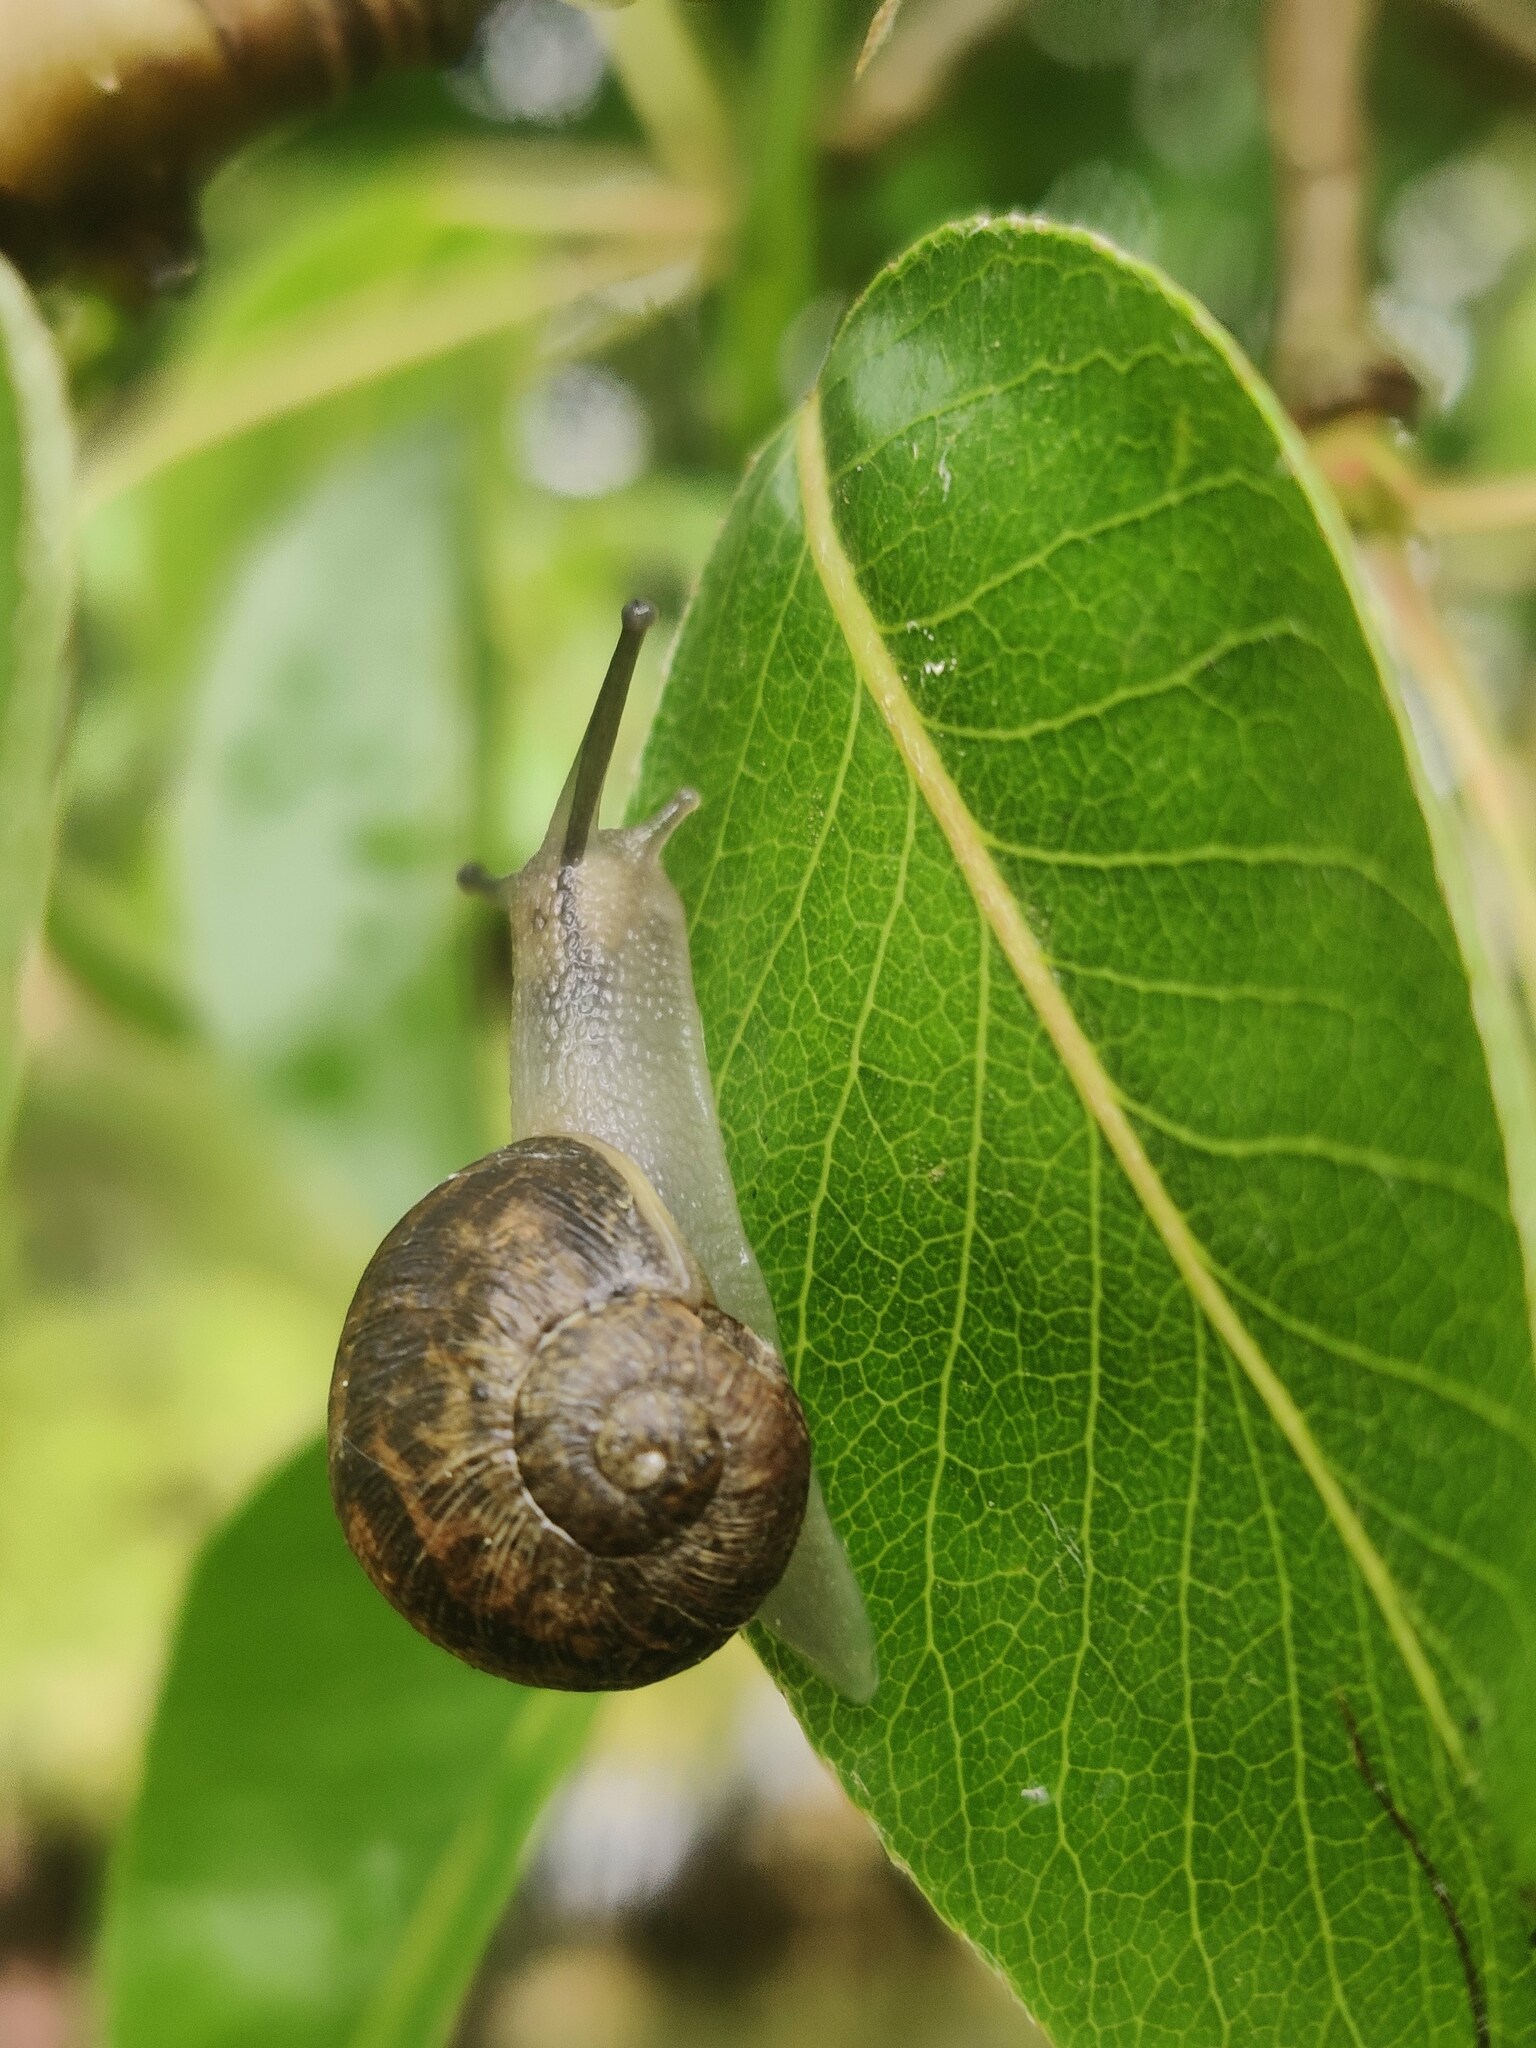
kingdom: Animalia
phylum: Mollusca
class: Gastropoda
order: Stylommatophora
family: Helicidae
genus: Cornu
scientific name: Cornu aspersum
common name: Brown garden snail
